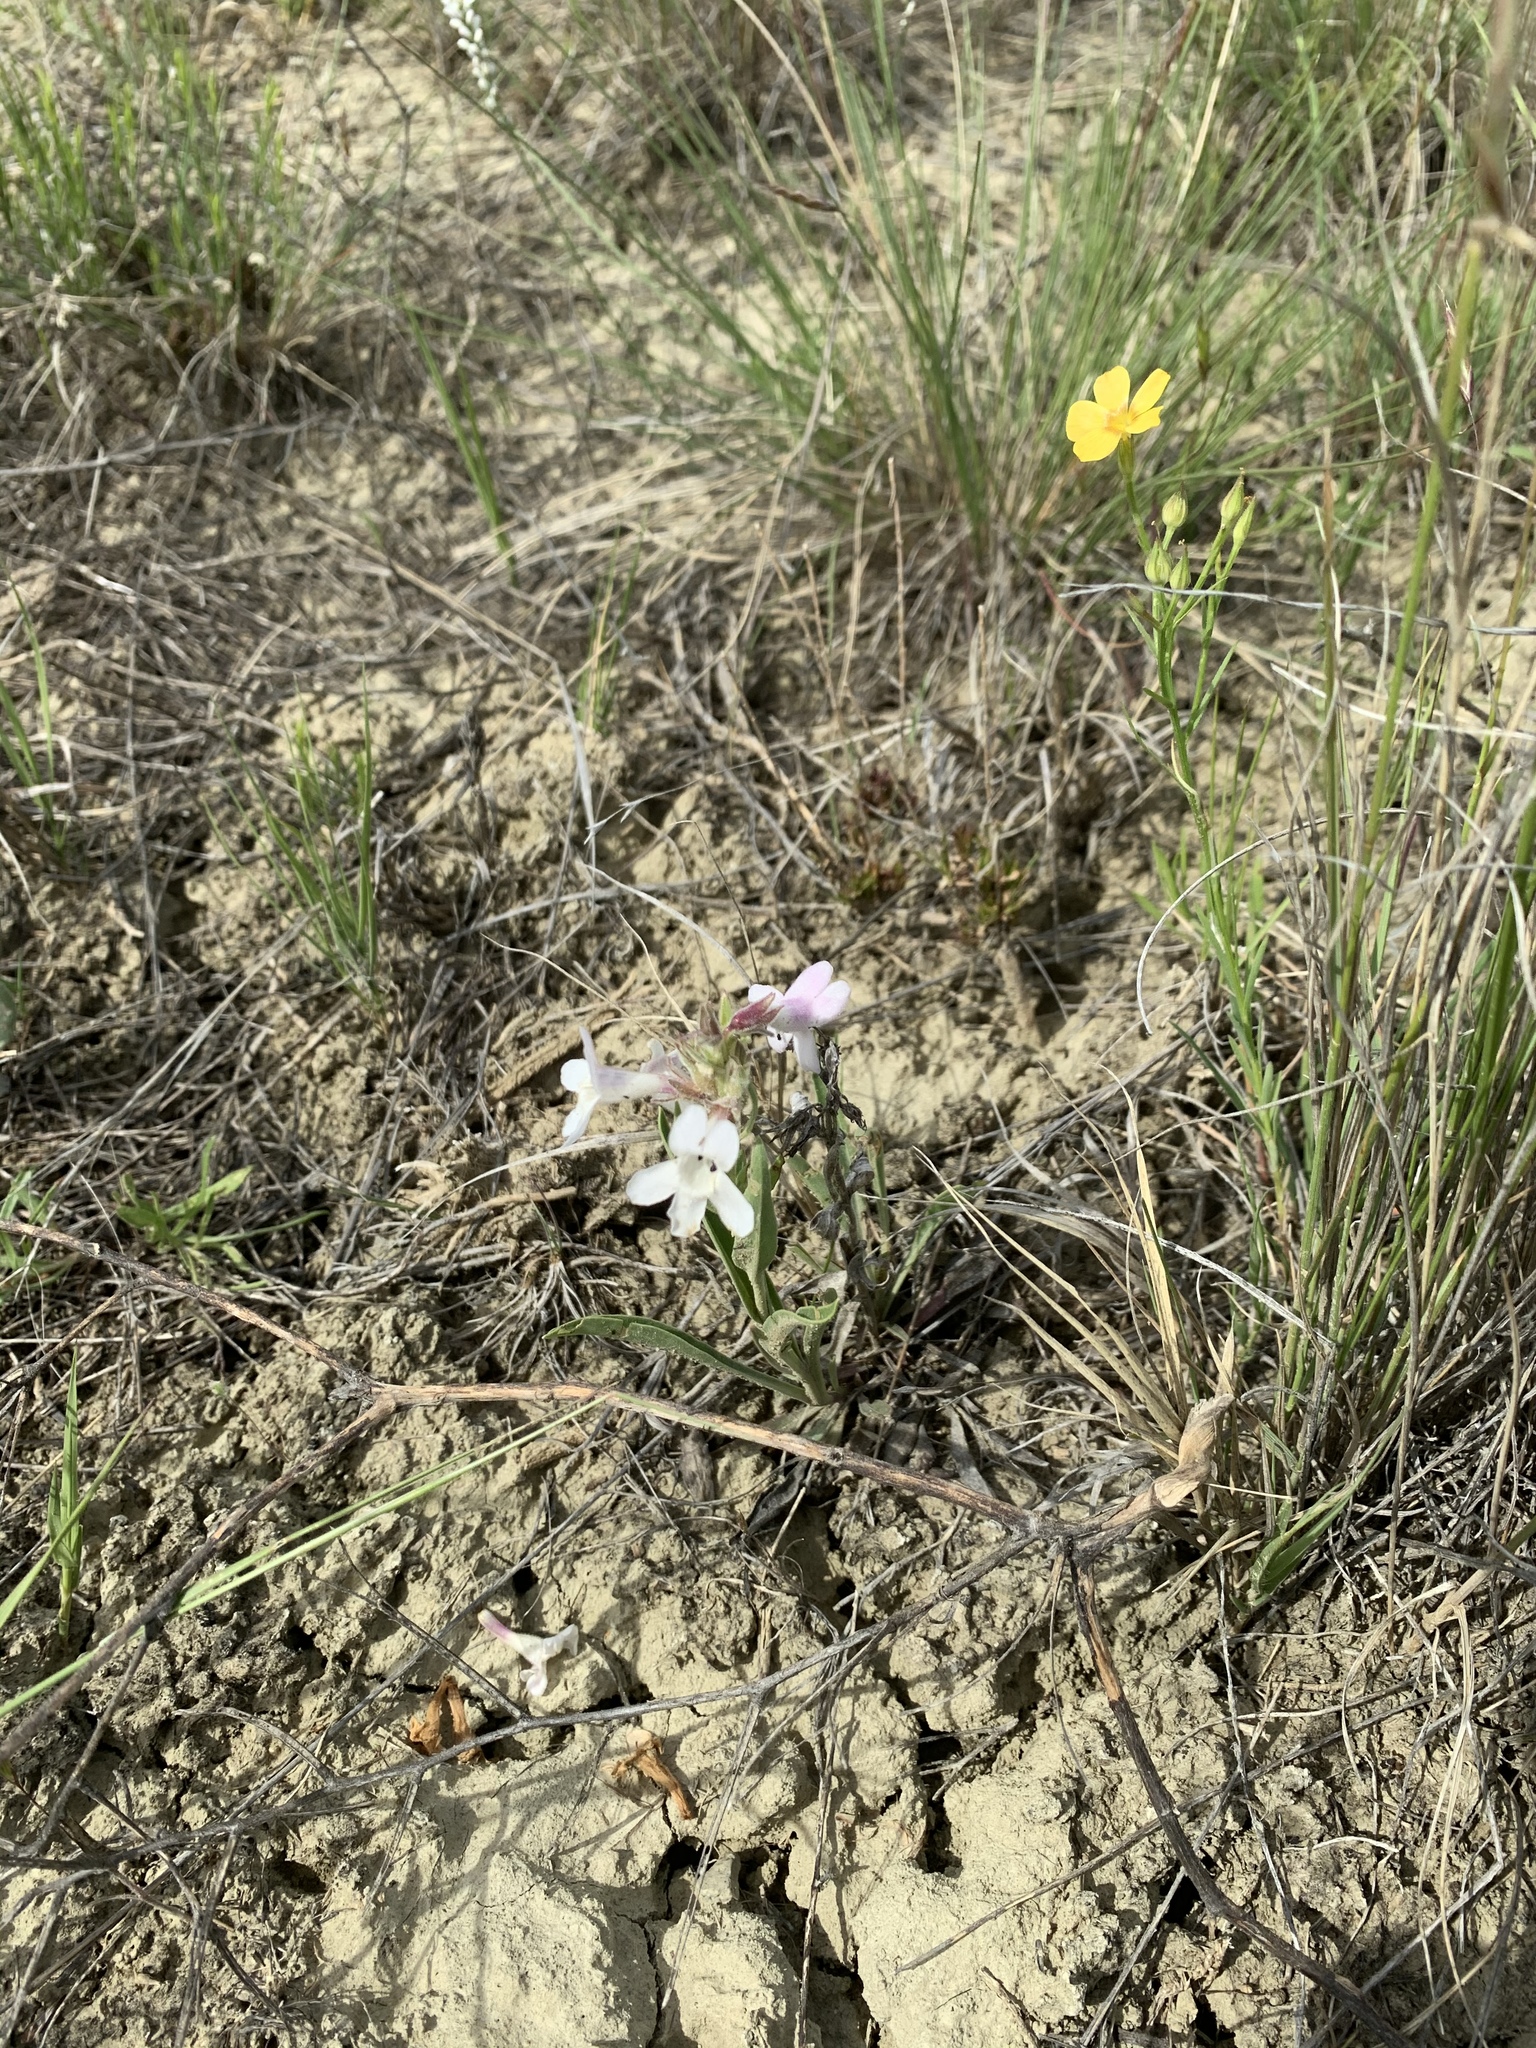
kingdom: Plantae
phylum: Tracheophyta
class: Magnoliopsida
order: Lamiales
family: Plantaginaceae
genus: Penstemon
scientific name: Penstemon albidus
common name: White beardtongue
